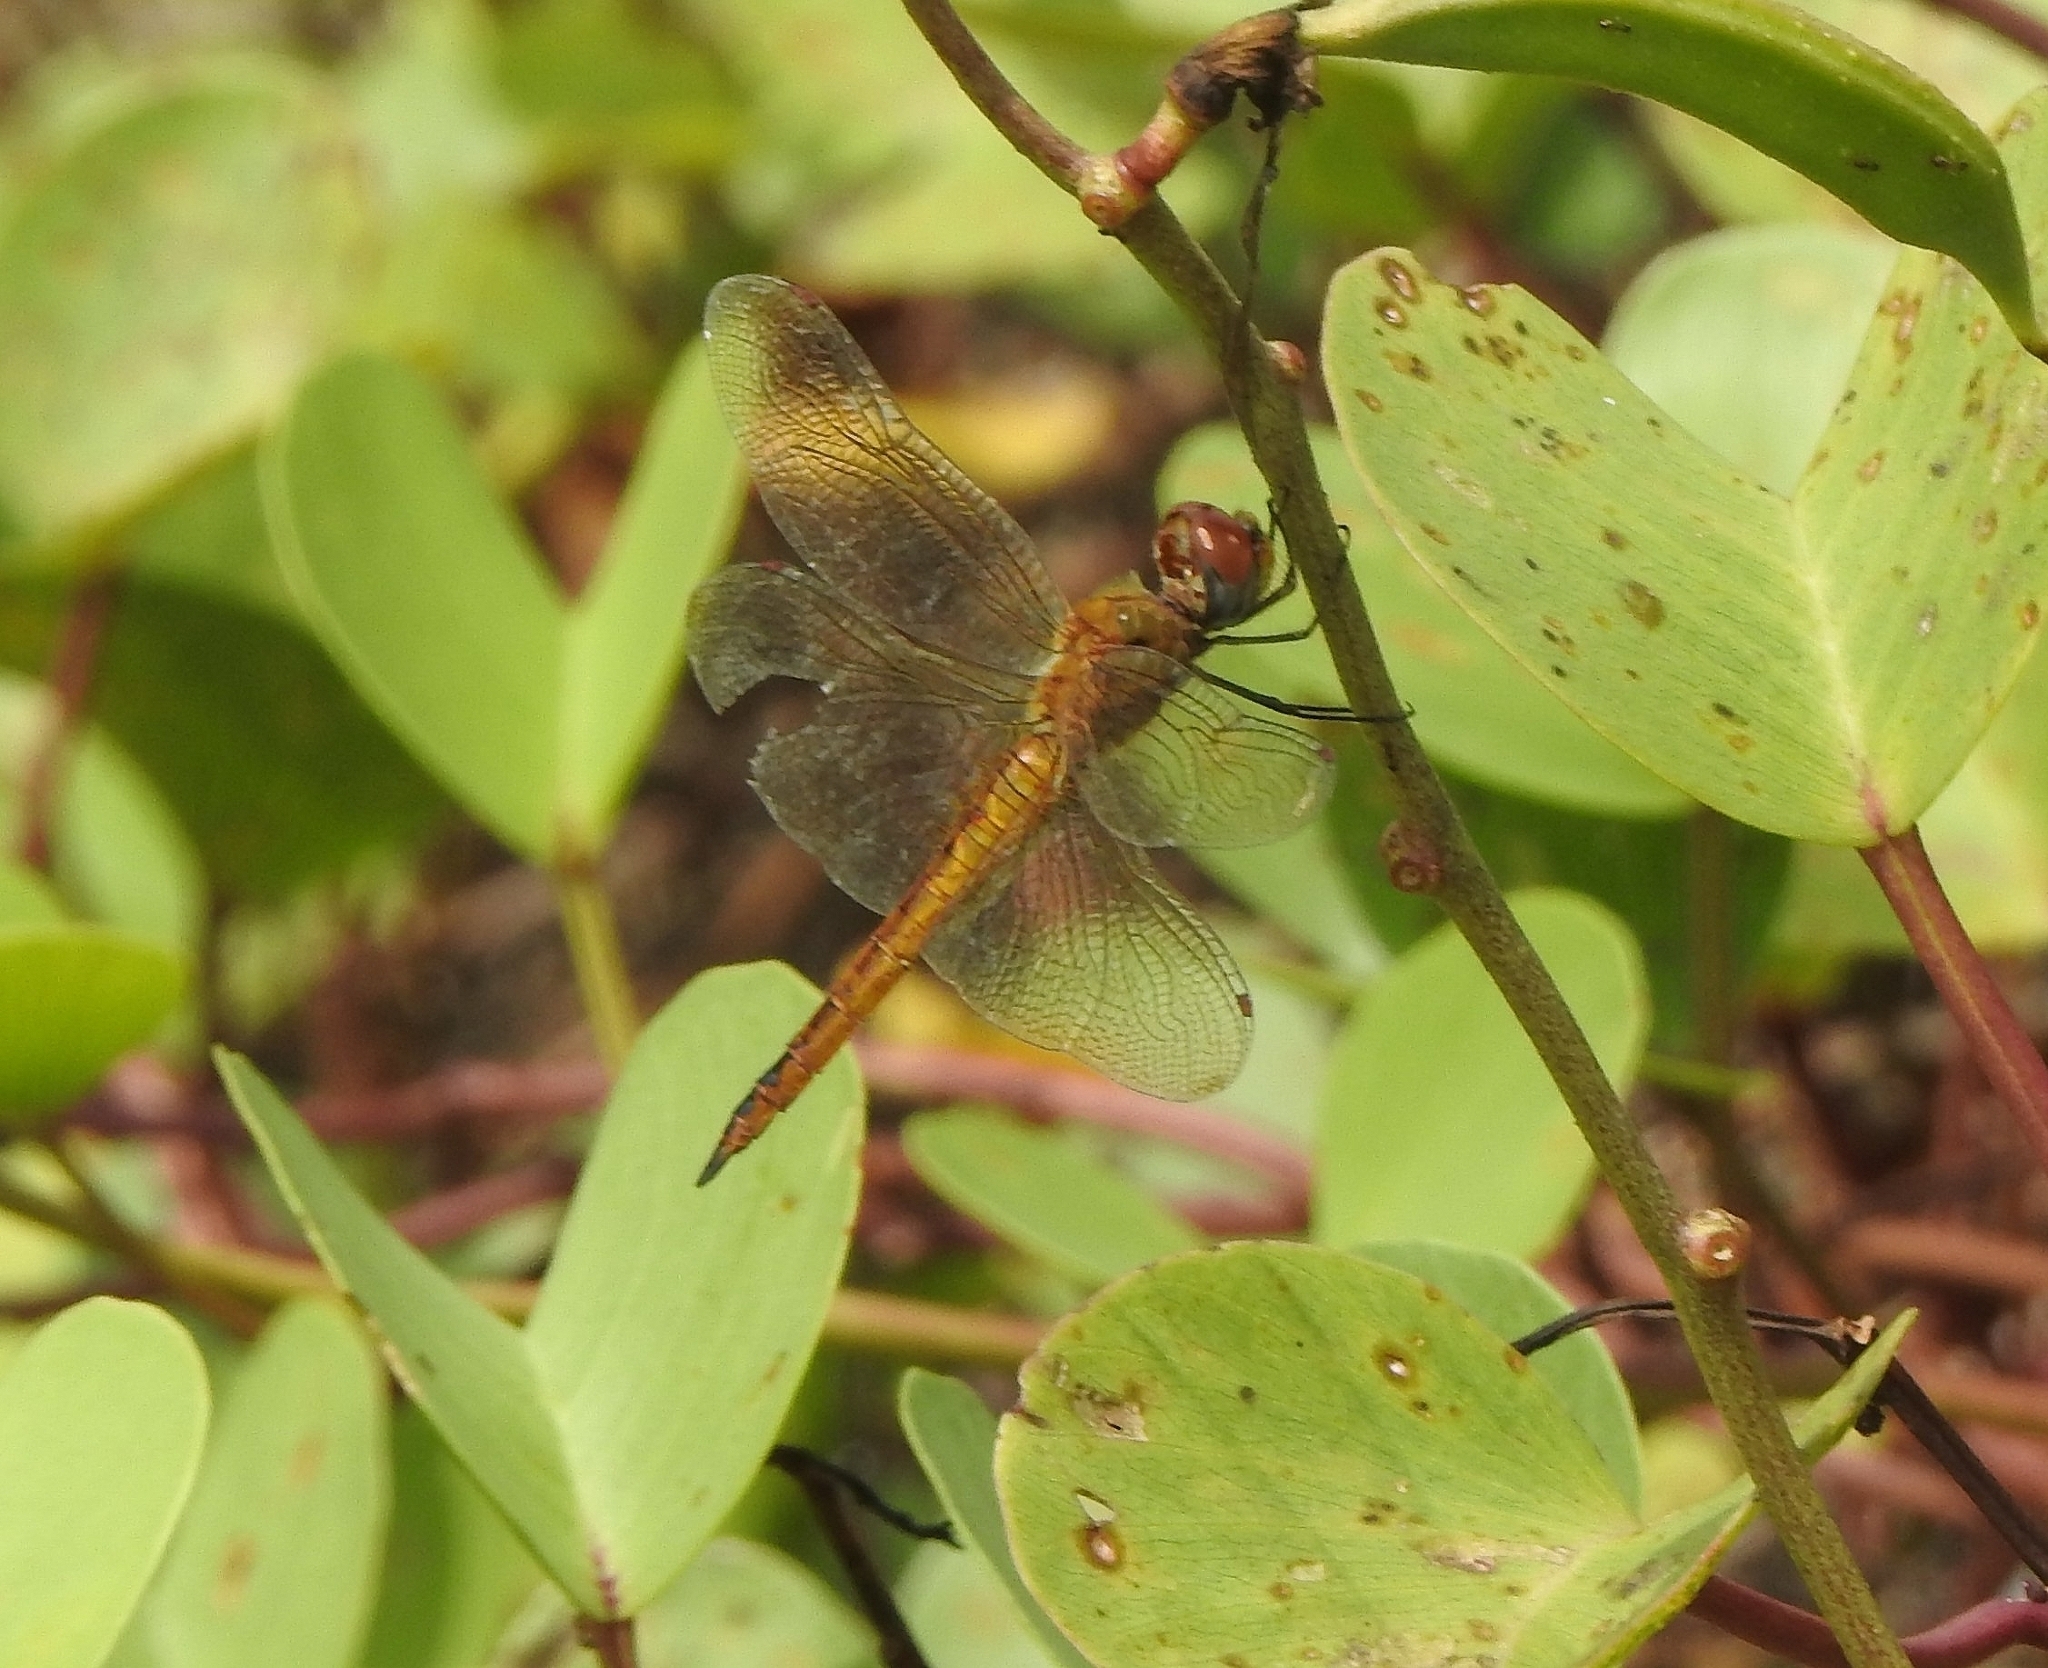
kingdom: Animalia
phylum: Arthropoda
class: Insecta
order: Odonata
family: Libellulidae
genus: Pantala
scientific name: Pantala flavescens
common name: Wandering glider
